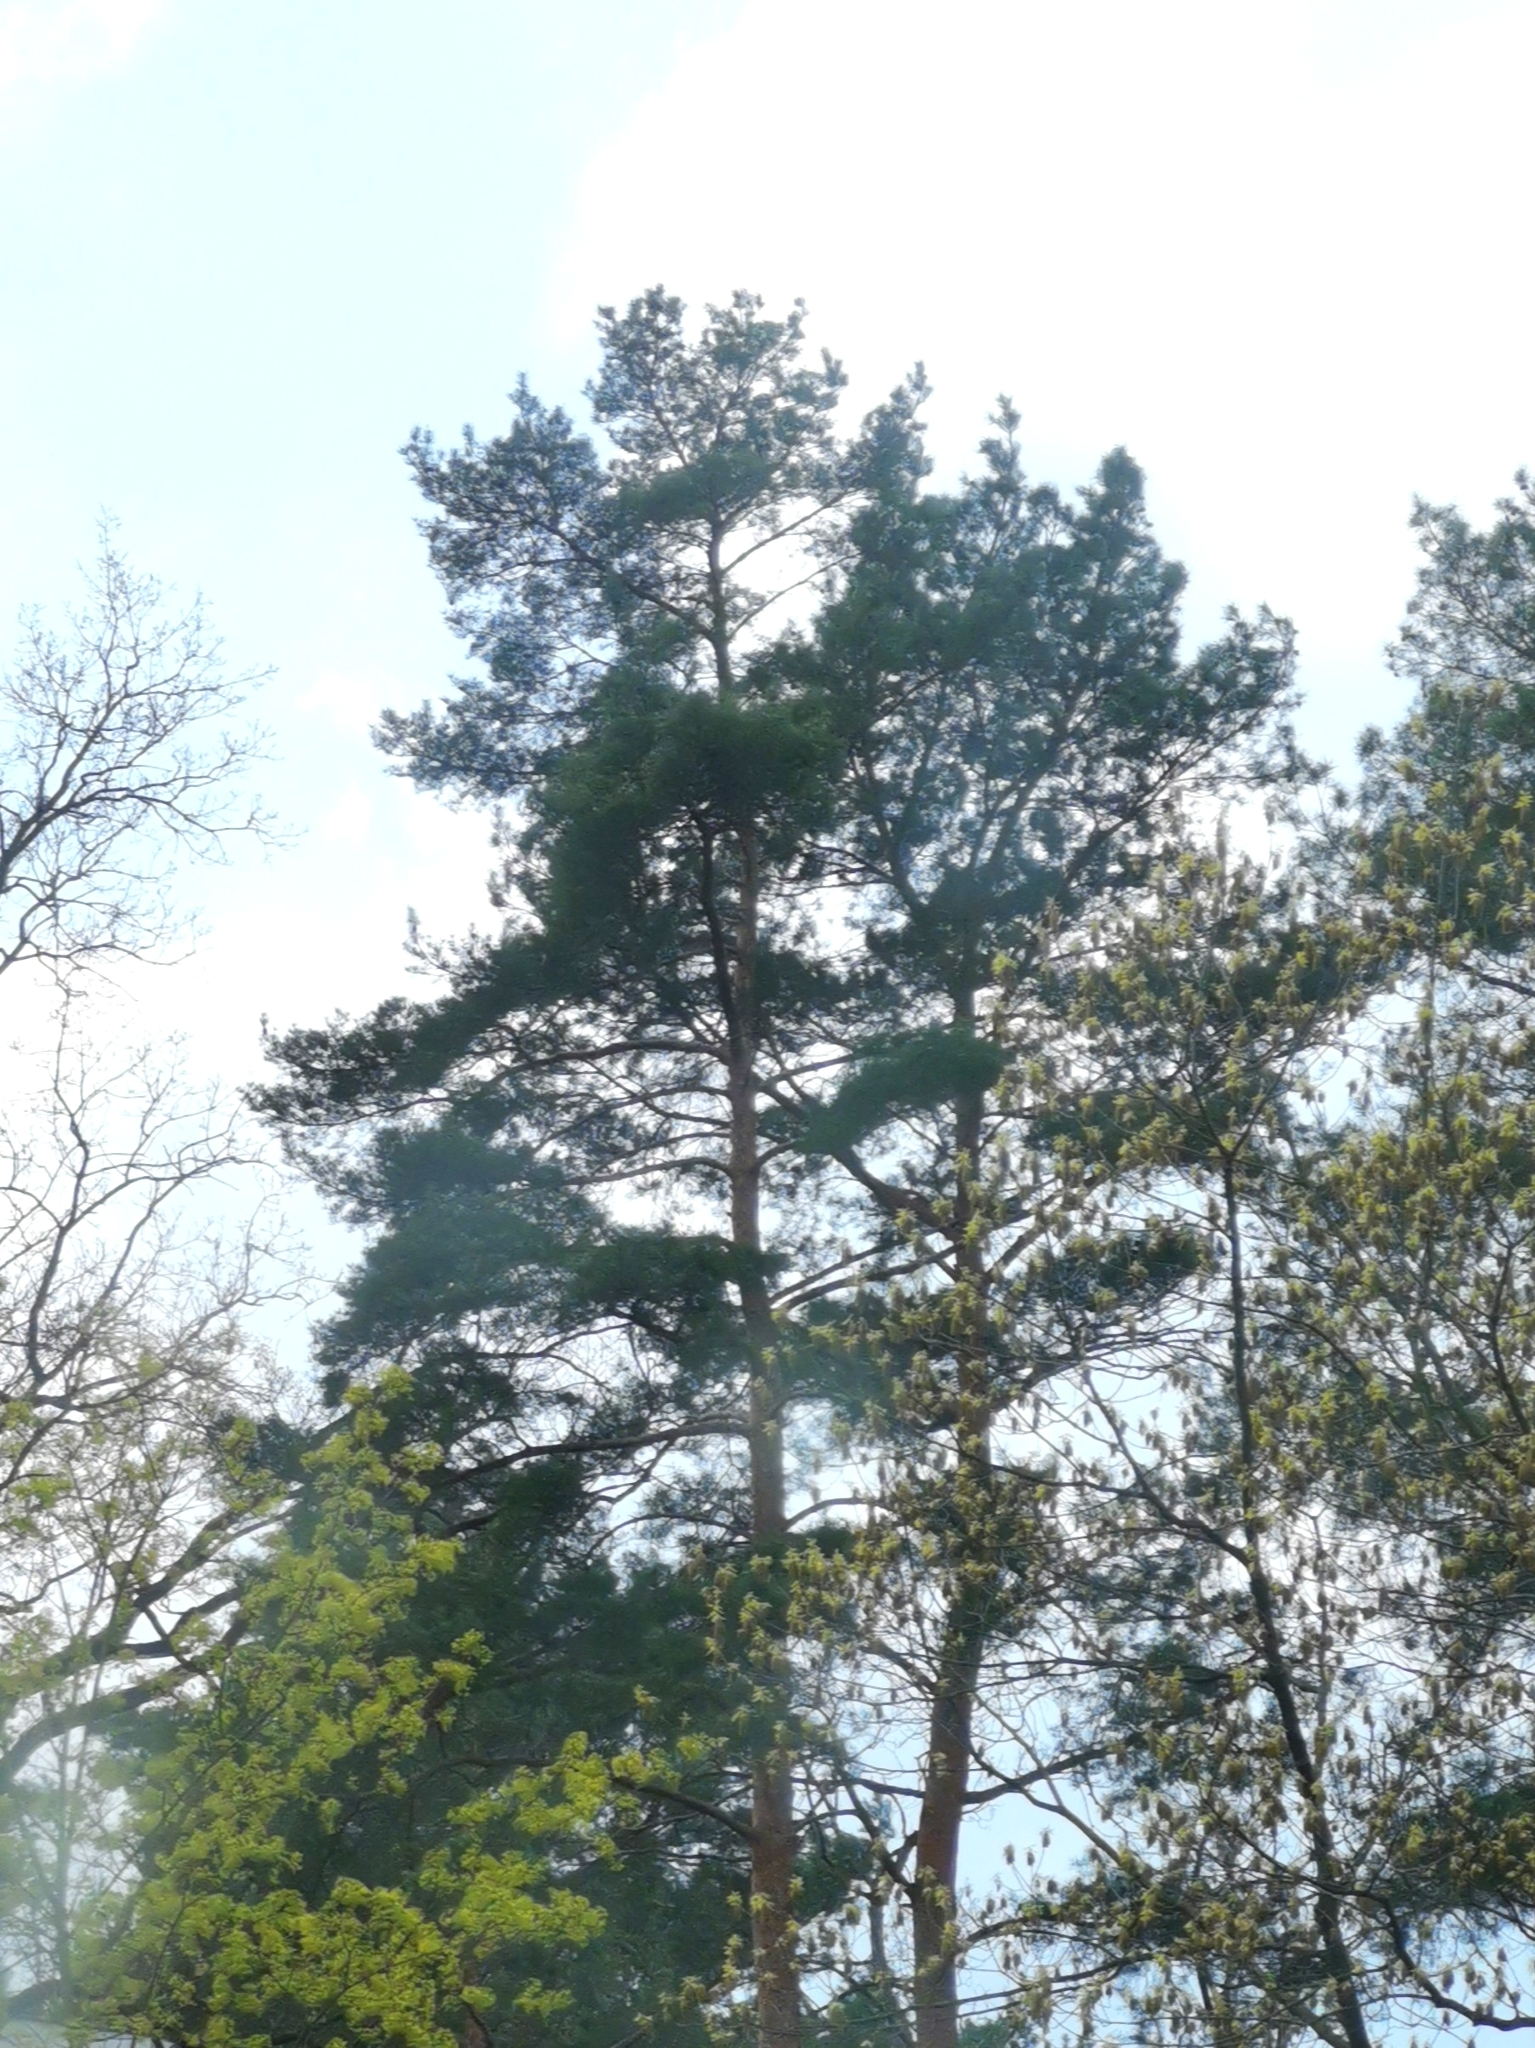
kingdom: Plantae
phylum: Tracheophyta
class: Pinopsida
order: Pinales
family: Pinaceae
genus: Pinus
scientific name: Pinus sylvestris
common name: Scots pine
